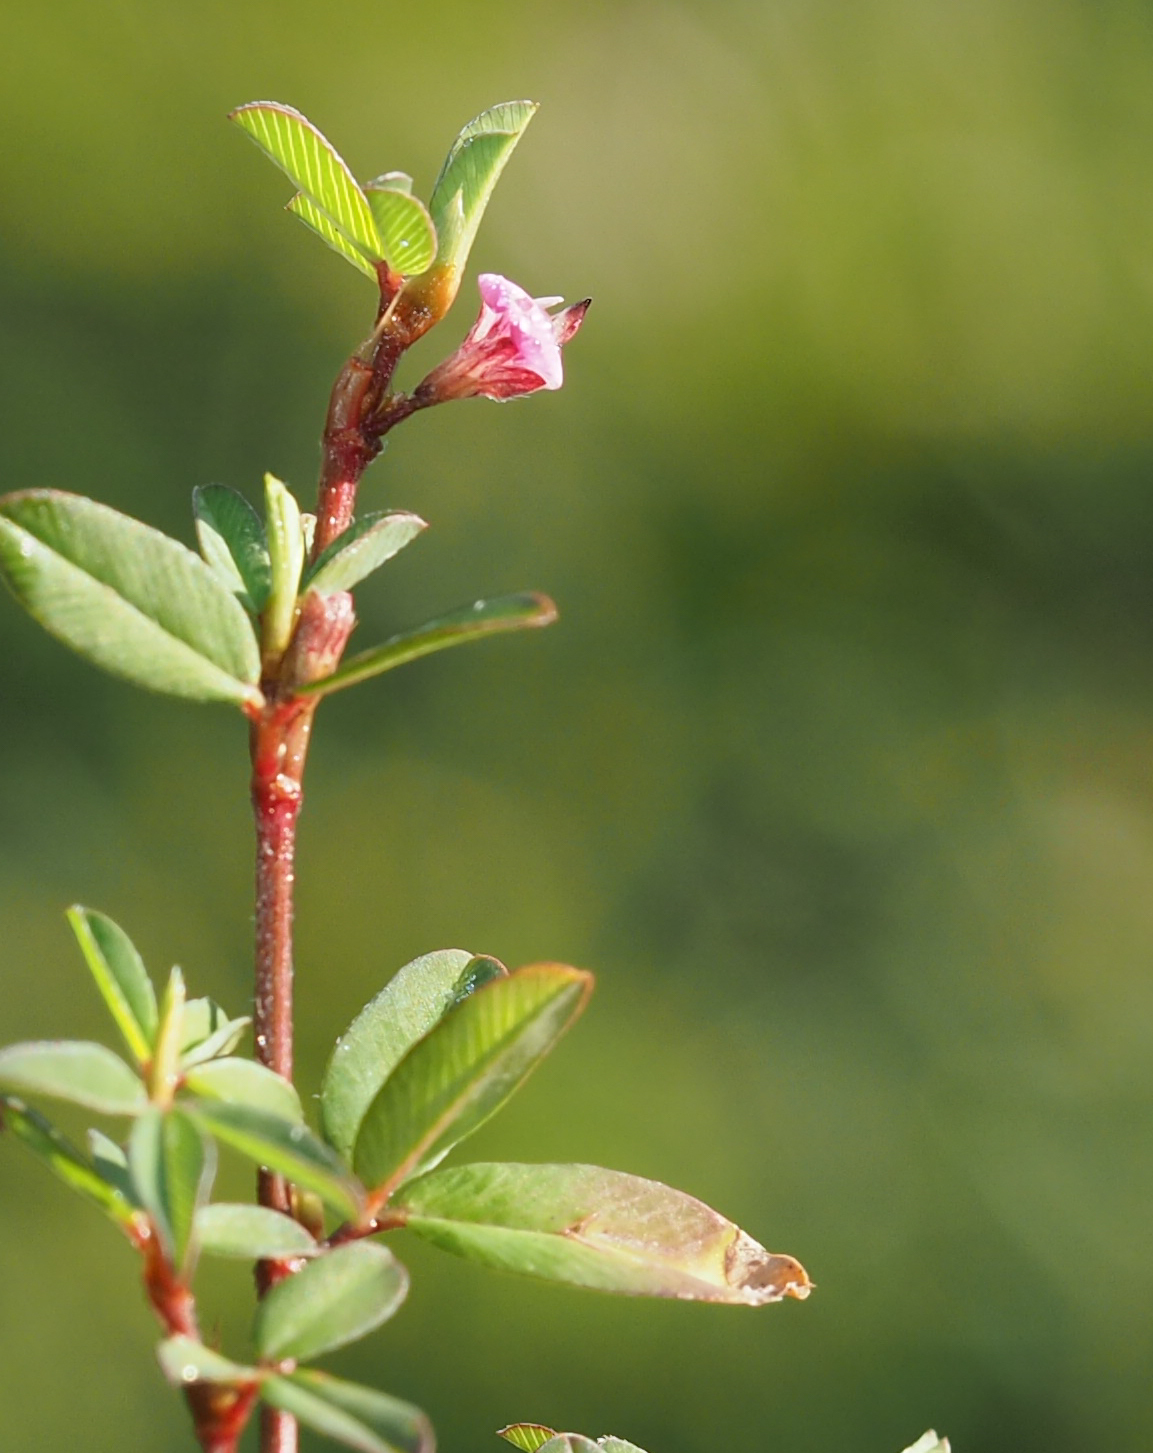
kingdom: Plantae
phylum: Tracheophyta
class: Magnoliopsida
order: Fabales
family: Fabaceae
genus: Kummerowia
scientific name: Kummerowia striata
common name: Japanese clover
